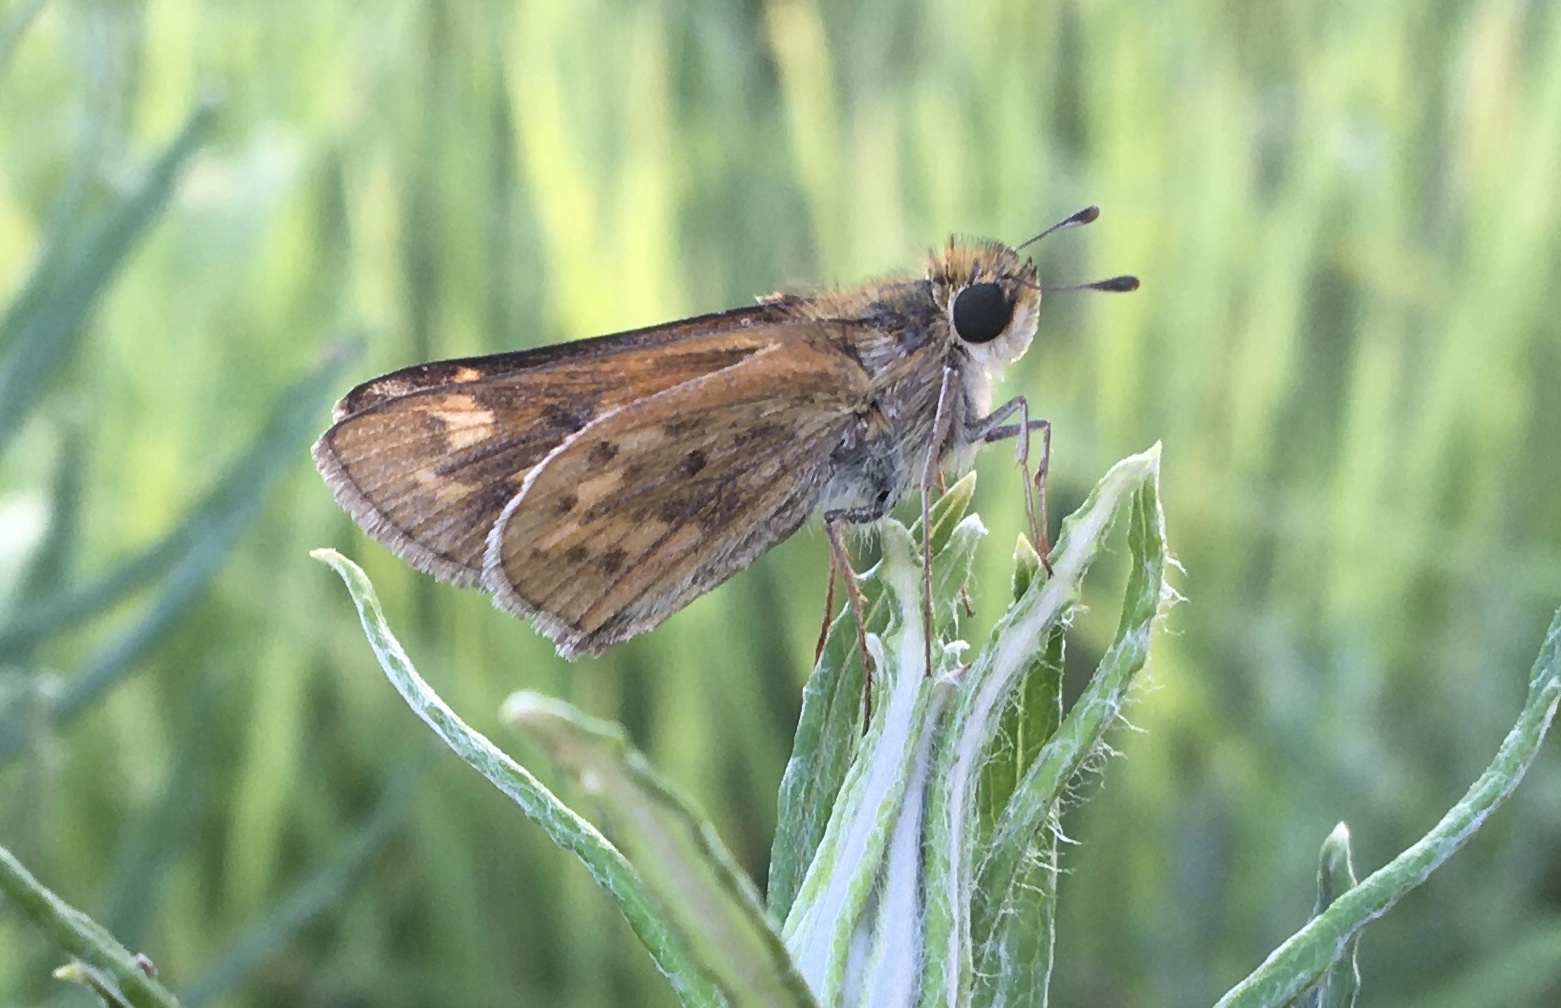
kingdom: Animalia
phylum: Arthropoda
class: Insecta
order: Lepidoptera
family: Hesperiidae
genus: Hylephila
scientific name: Hylephila phyleus
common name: Fiery skipper
